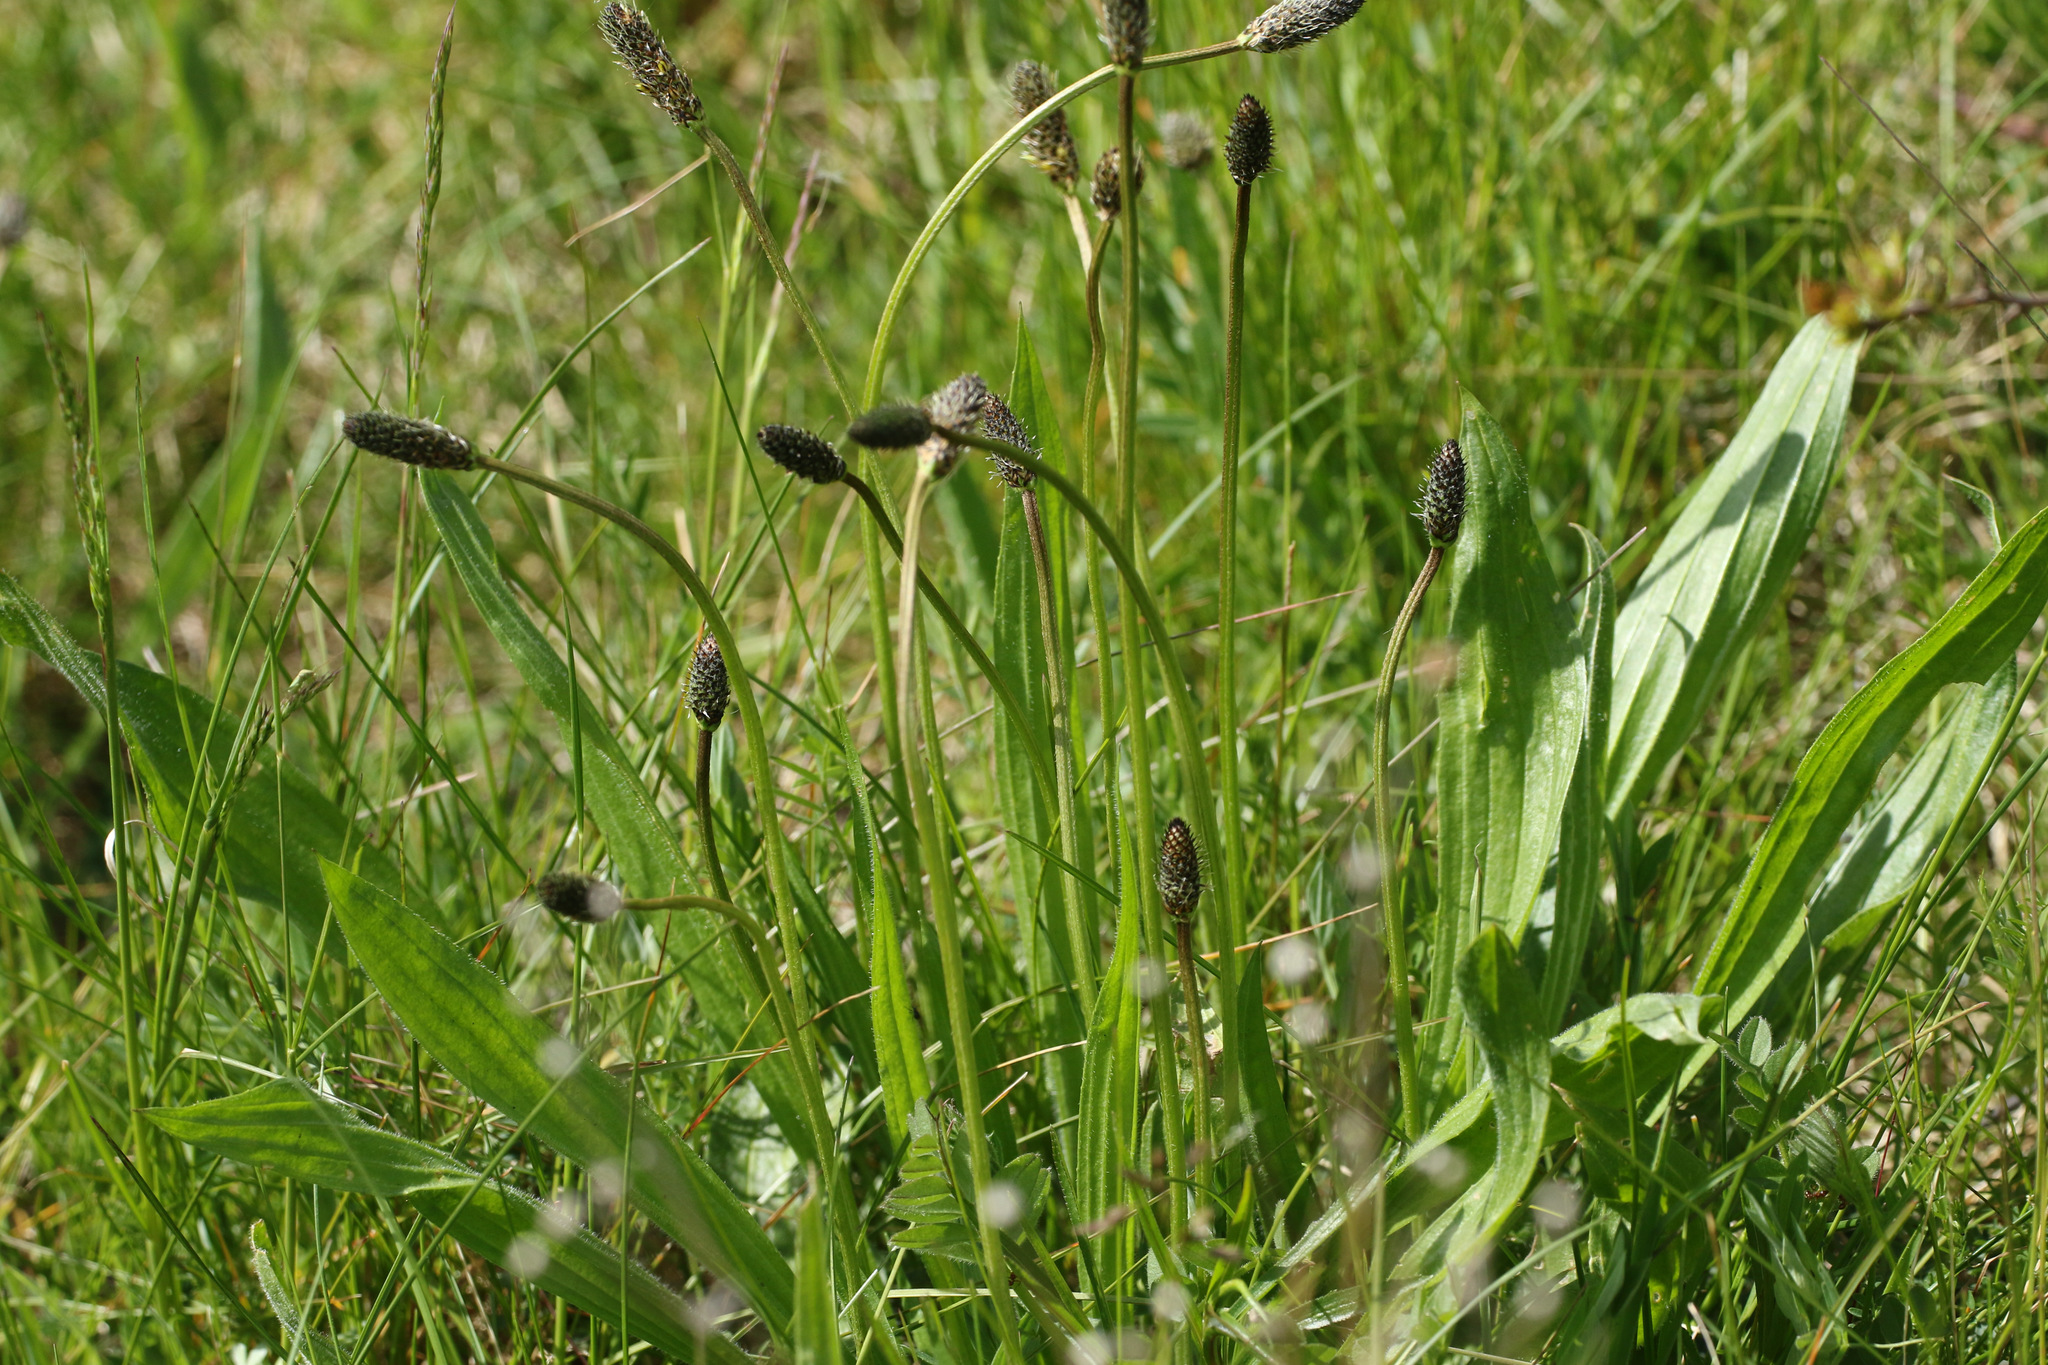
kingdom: Plantae
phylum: Tracheophyta
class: Magnoliopsida
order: Lamiales
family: Plantaginaceae
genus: Plantago
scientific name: Plantago lanceolata
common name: Ribwort plantain
